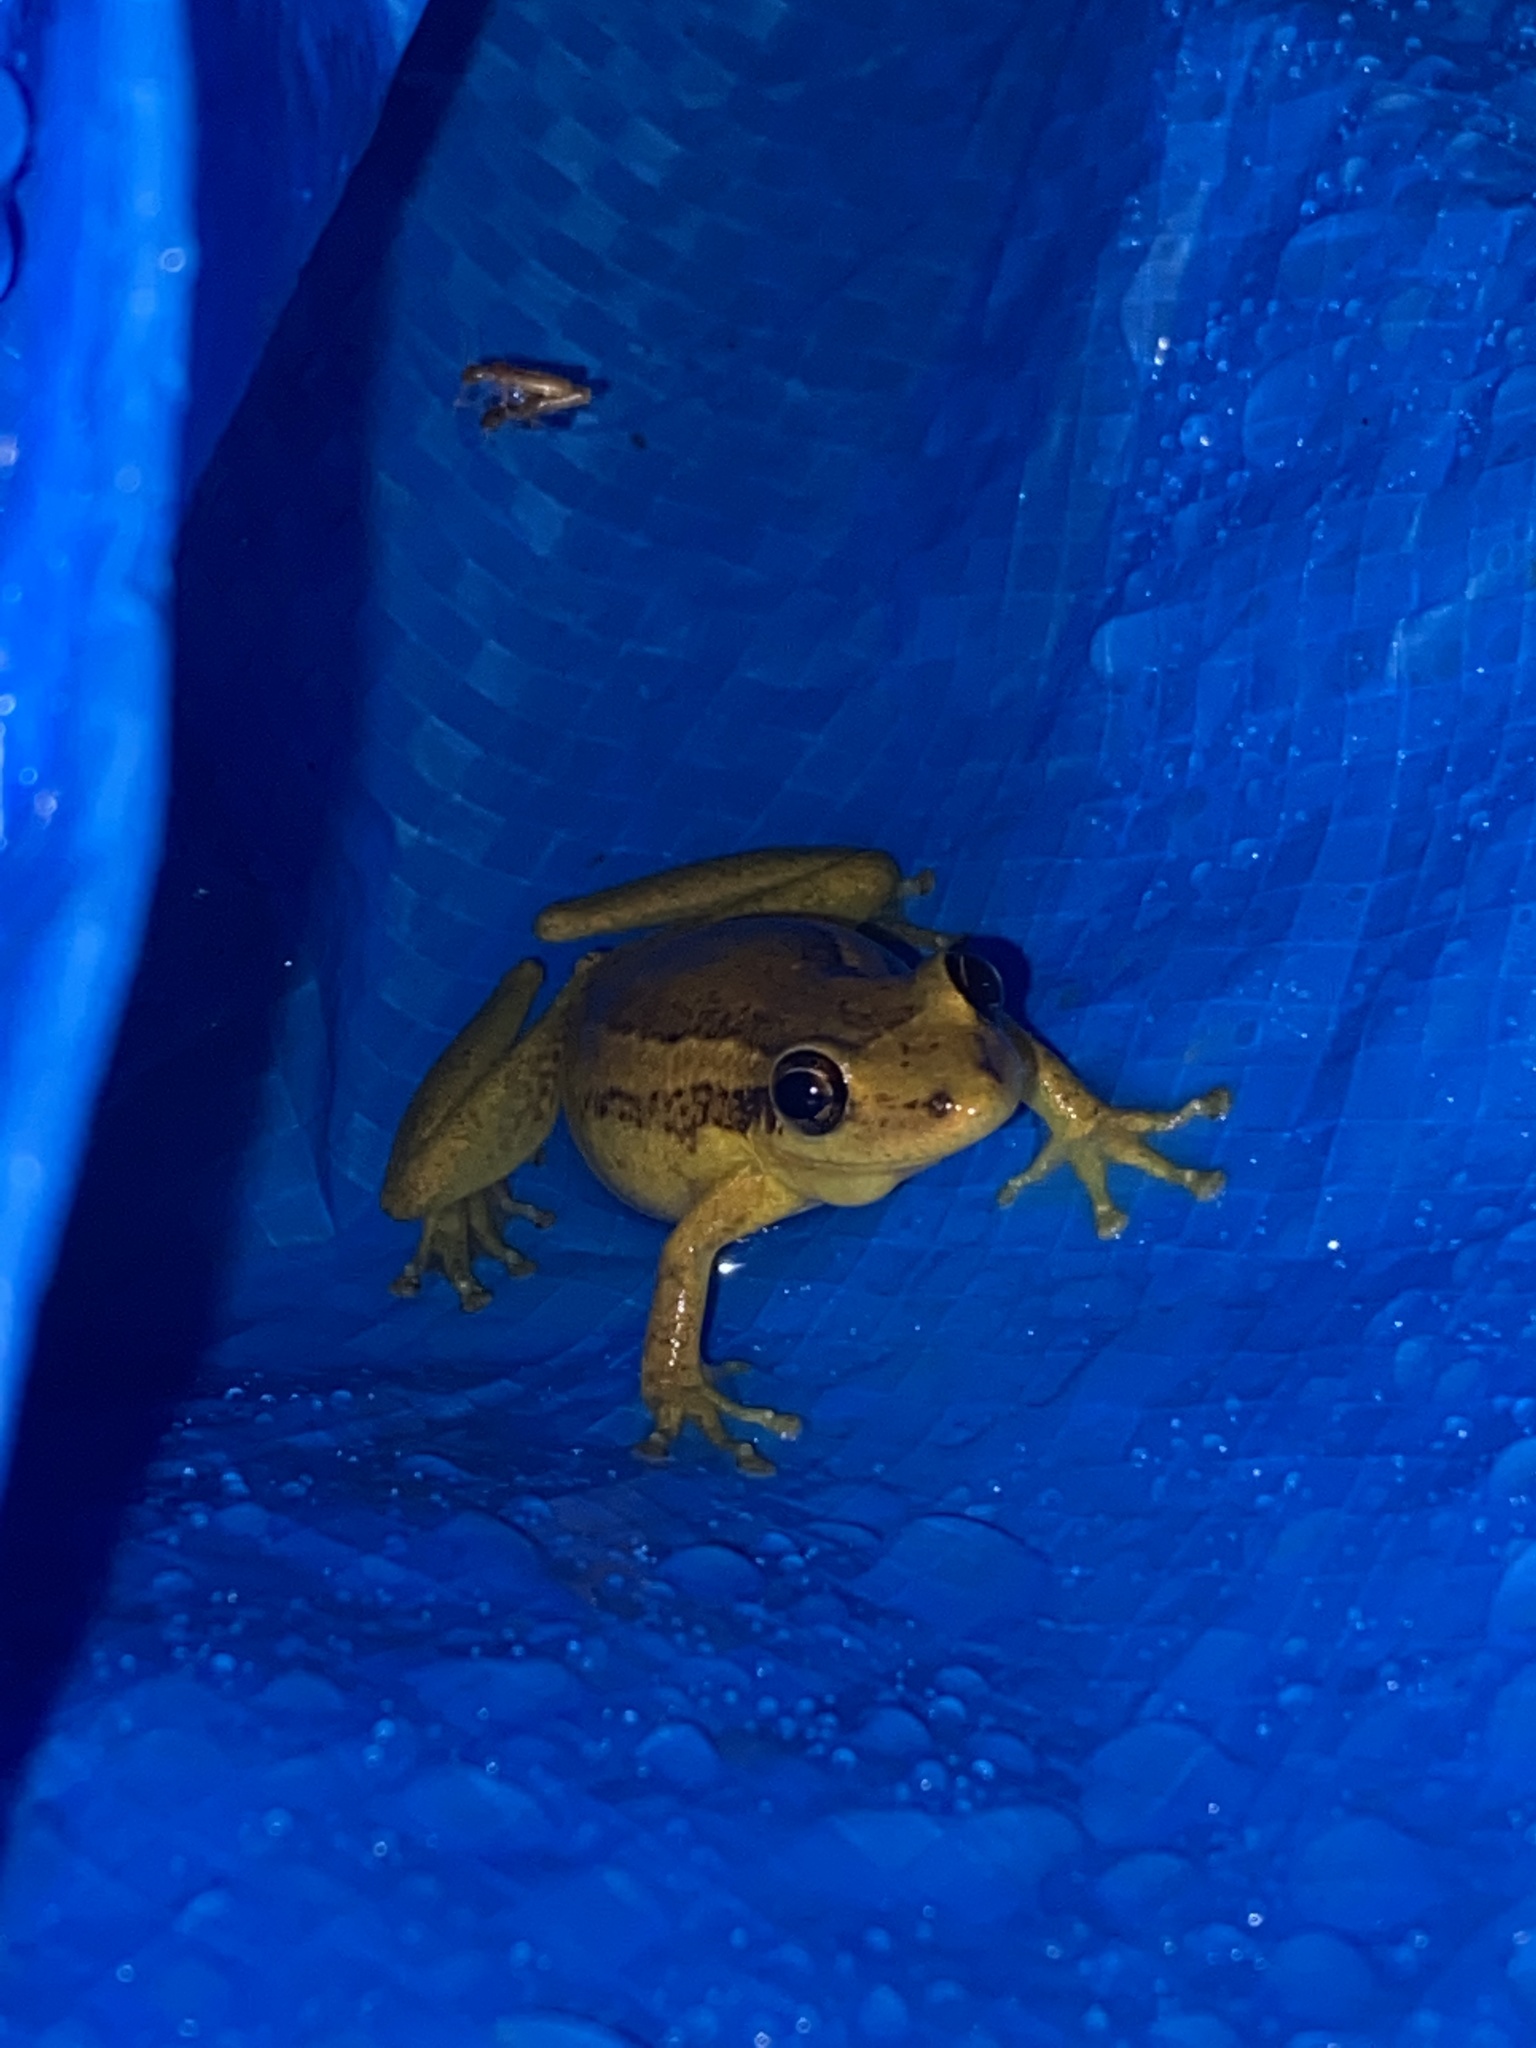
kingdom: Animalia
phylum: Chordata
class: Amphibia
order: Anura
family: Hylidae
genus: Scinax
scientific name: Scinax ruber
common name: Red snouted treefrog
